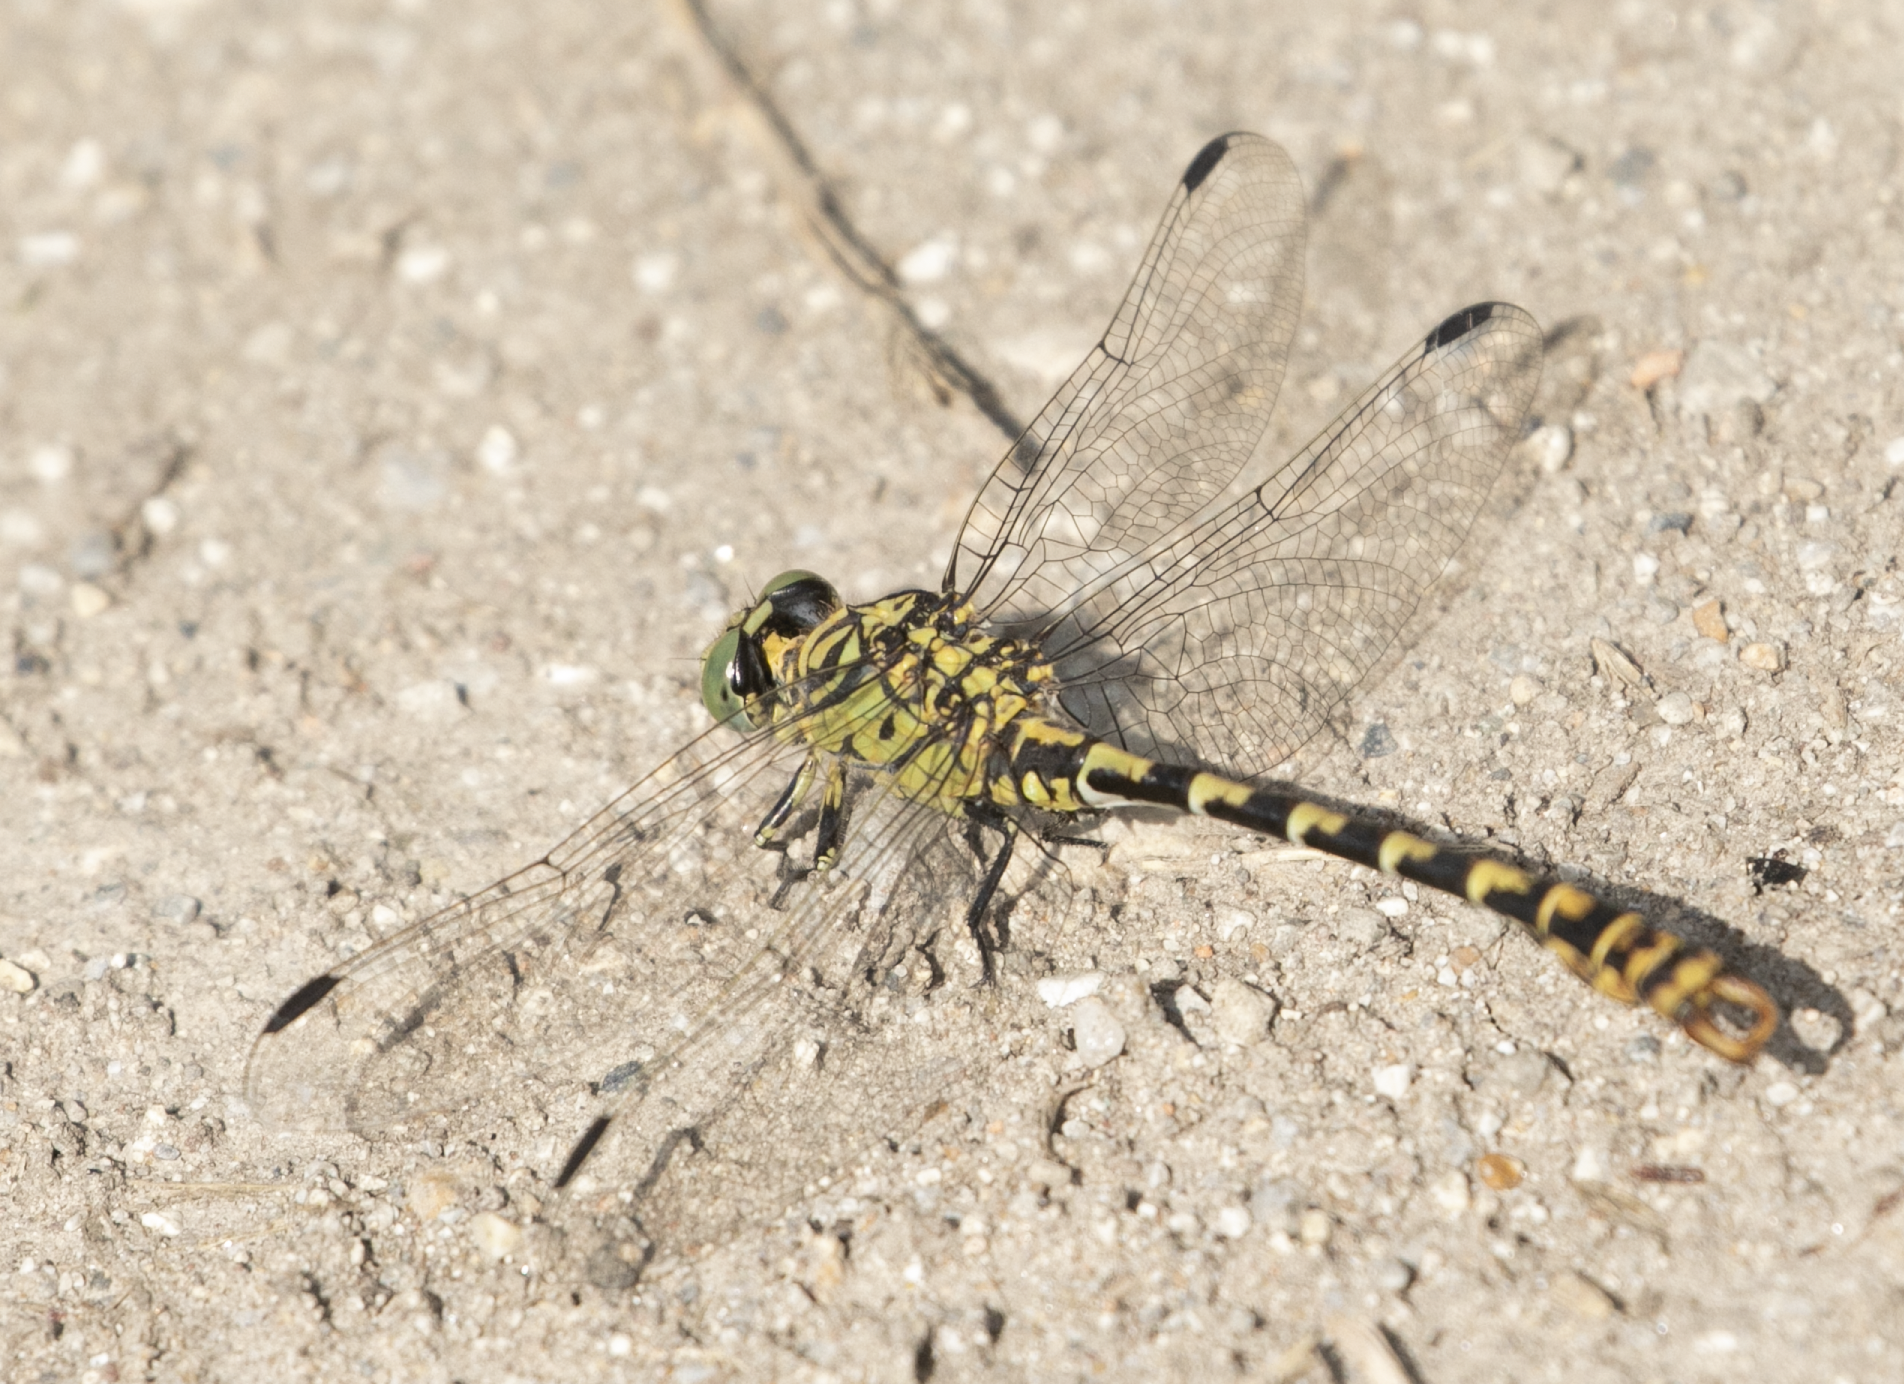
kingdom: Animalia
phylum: Arthropoda
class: Insecta
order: Odonata
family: Gomphidae
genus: Onychogomphus
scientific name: Onychogomphus forcipatus
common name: Small pincertail
